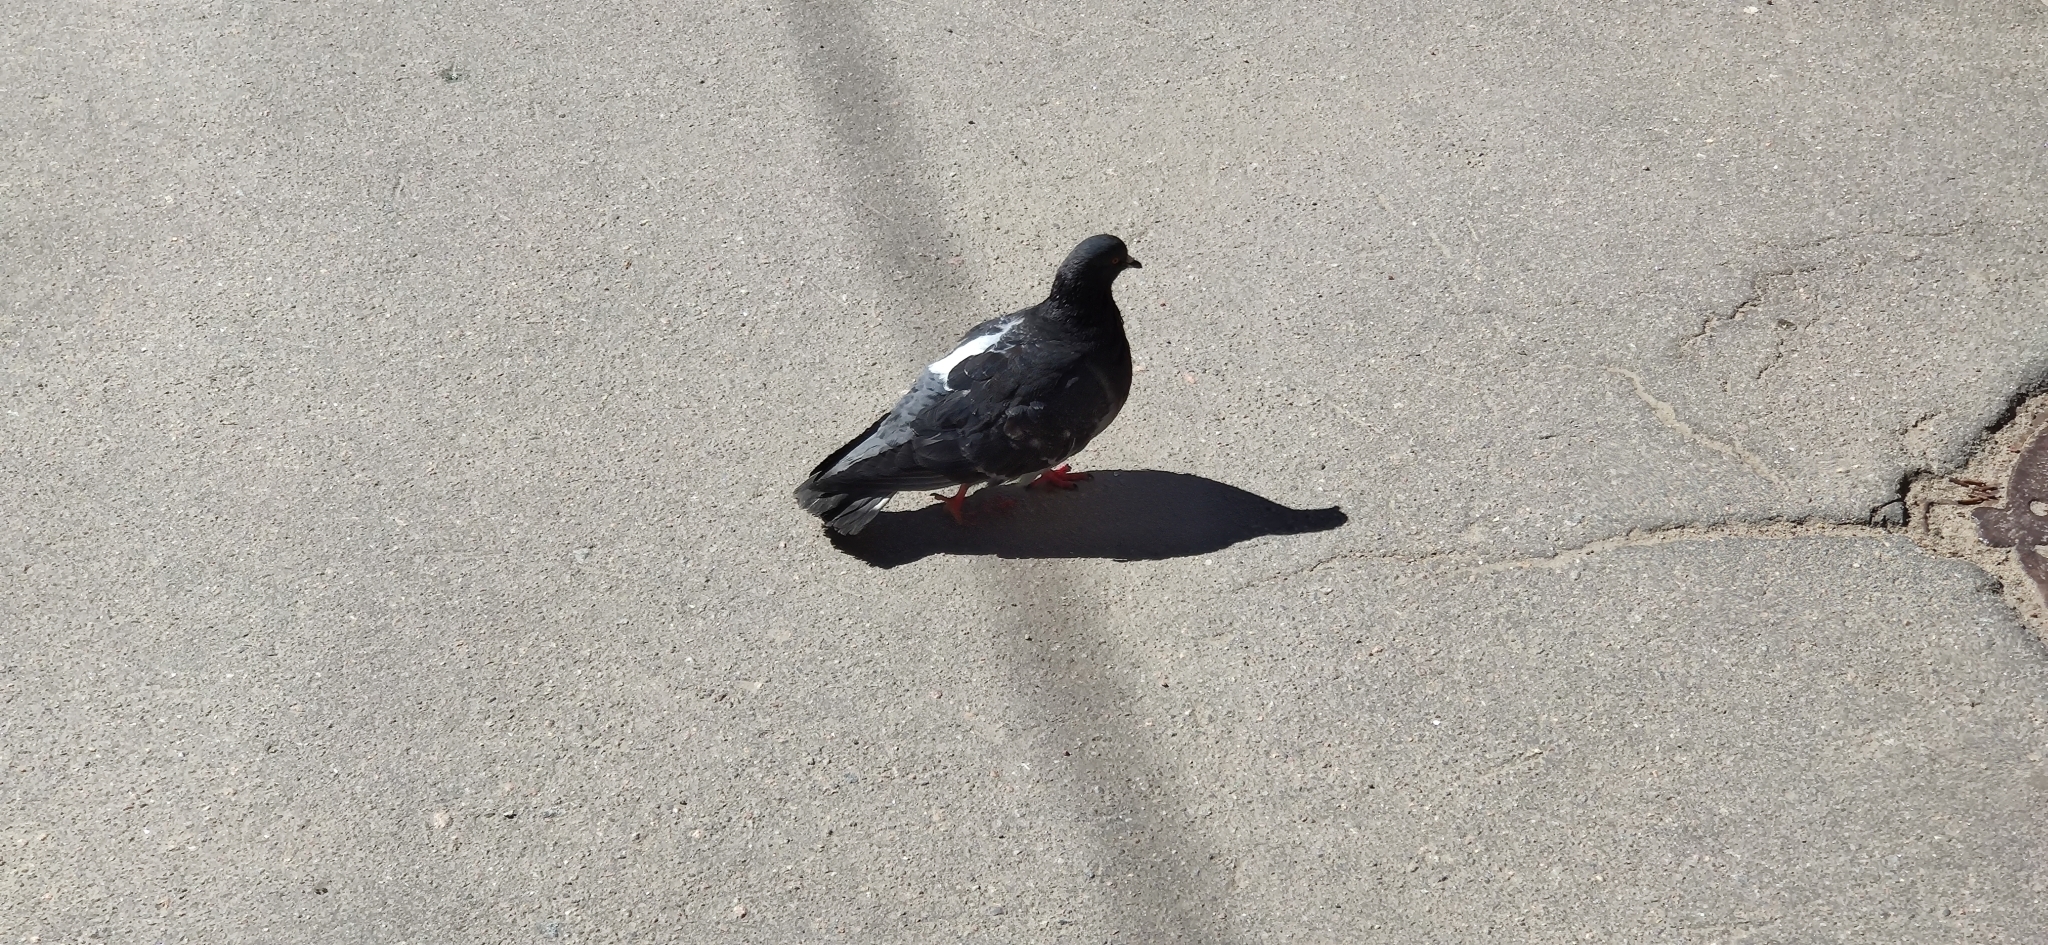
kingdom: Animalia
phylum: Chordata
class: Aves
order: Columbiformes
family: Columbidae
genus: Columba
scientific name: Columba livia
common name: Rock pigeon
